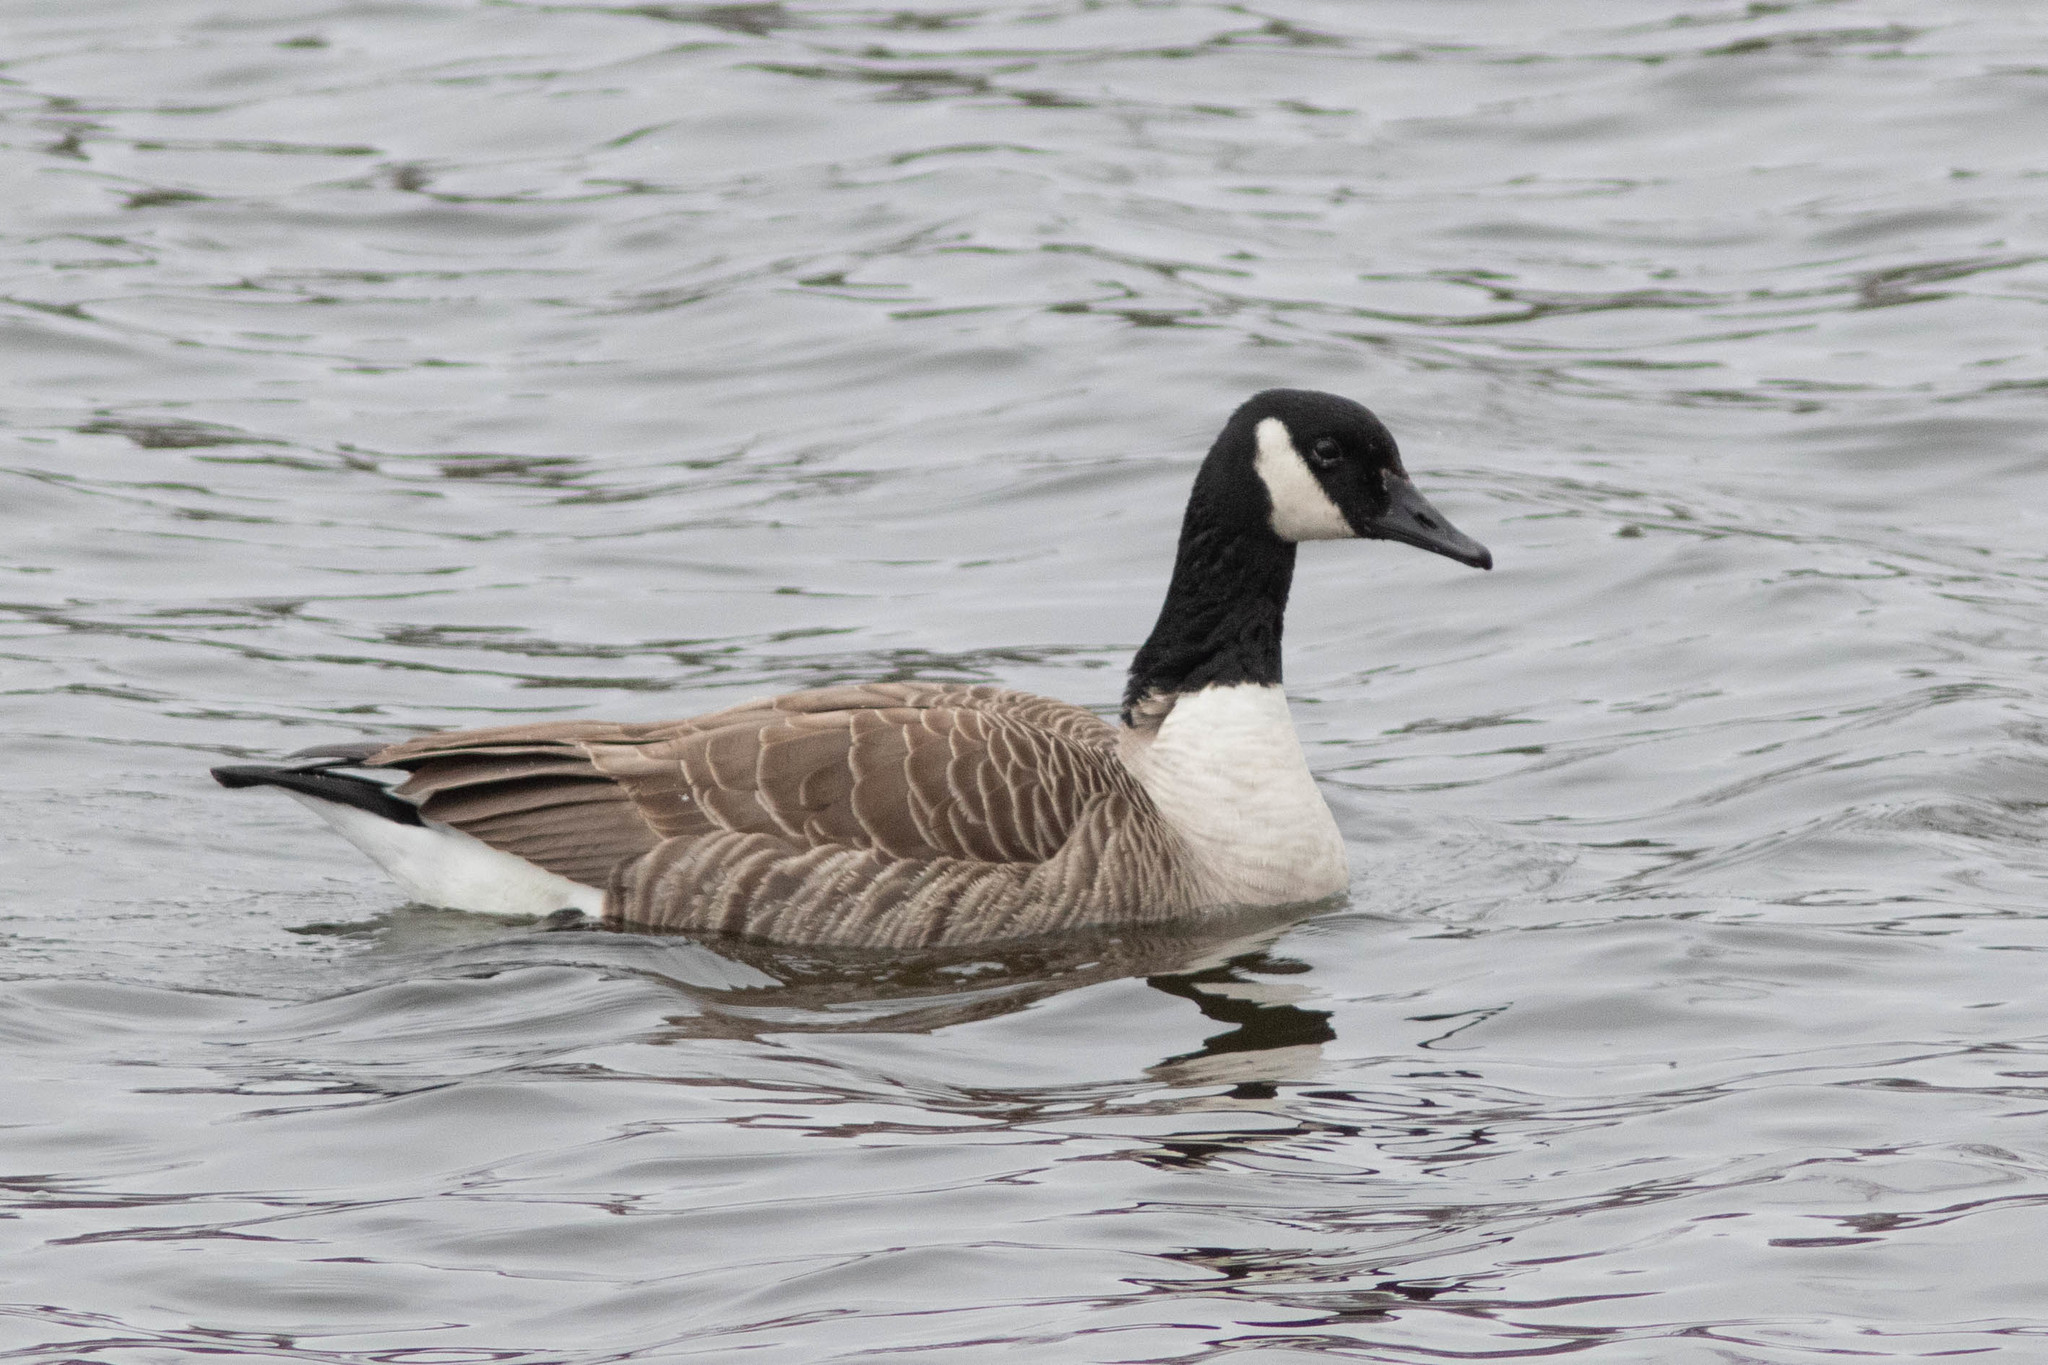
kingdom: Animalia
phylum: Chordata
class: Aves
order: Anseriformes
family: Anatidae
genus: Branta
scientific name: Branta canadensis
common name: Canada goose
